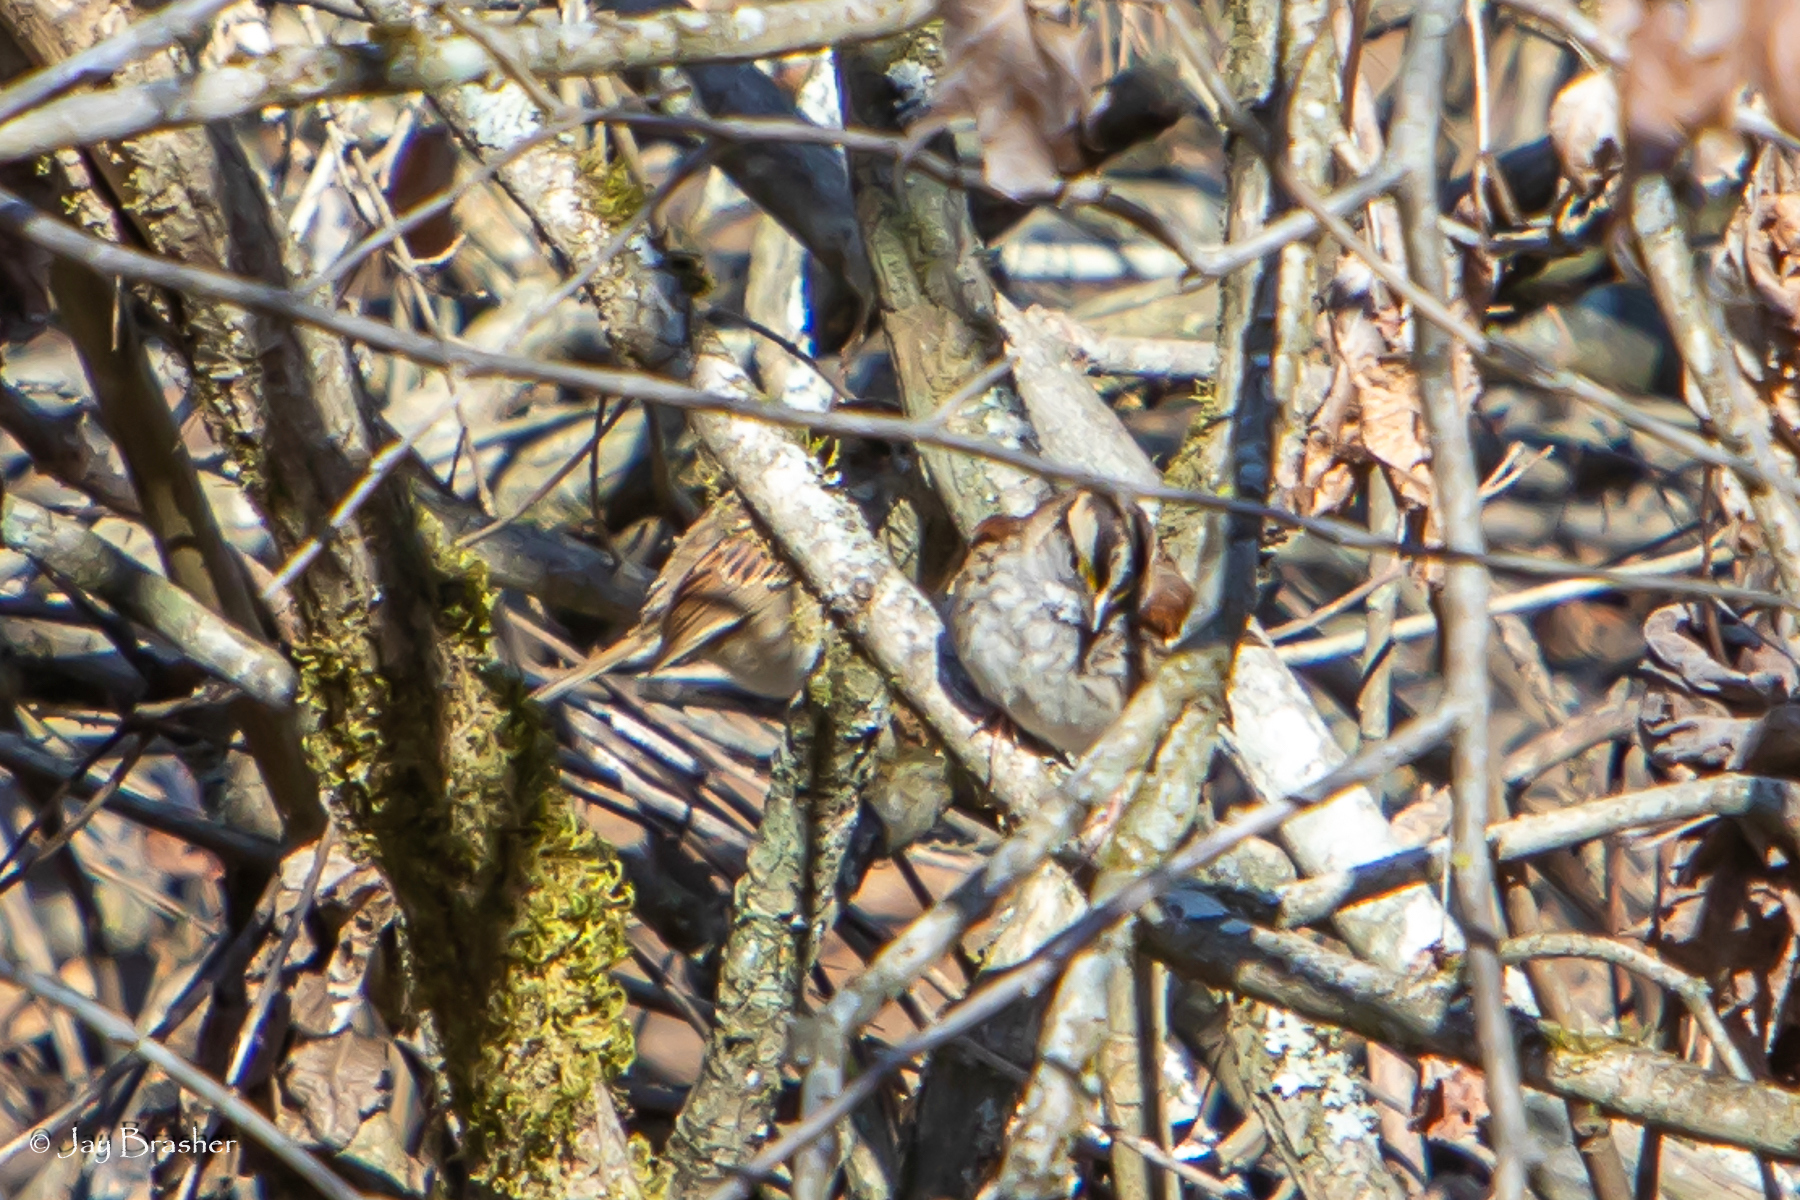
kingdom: Animalia
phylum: Chordata
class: Aves
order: Passeriformes
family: Passerellidae
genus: Zonotrichia
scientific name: Zonotrichia albicollis
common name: White-throated sparrow
